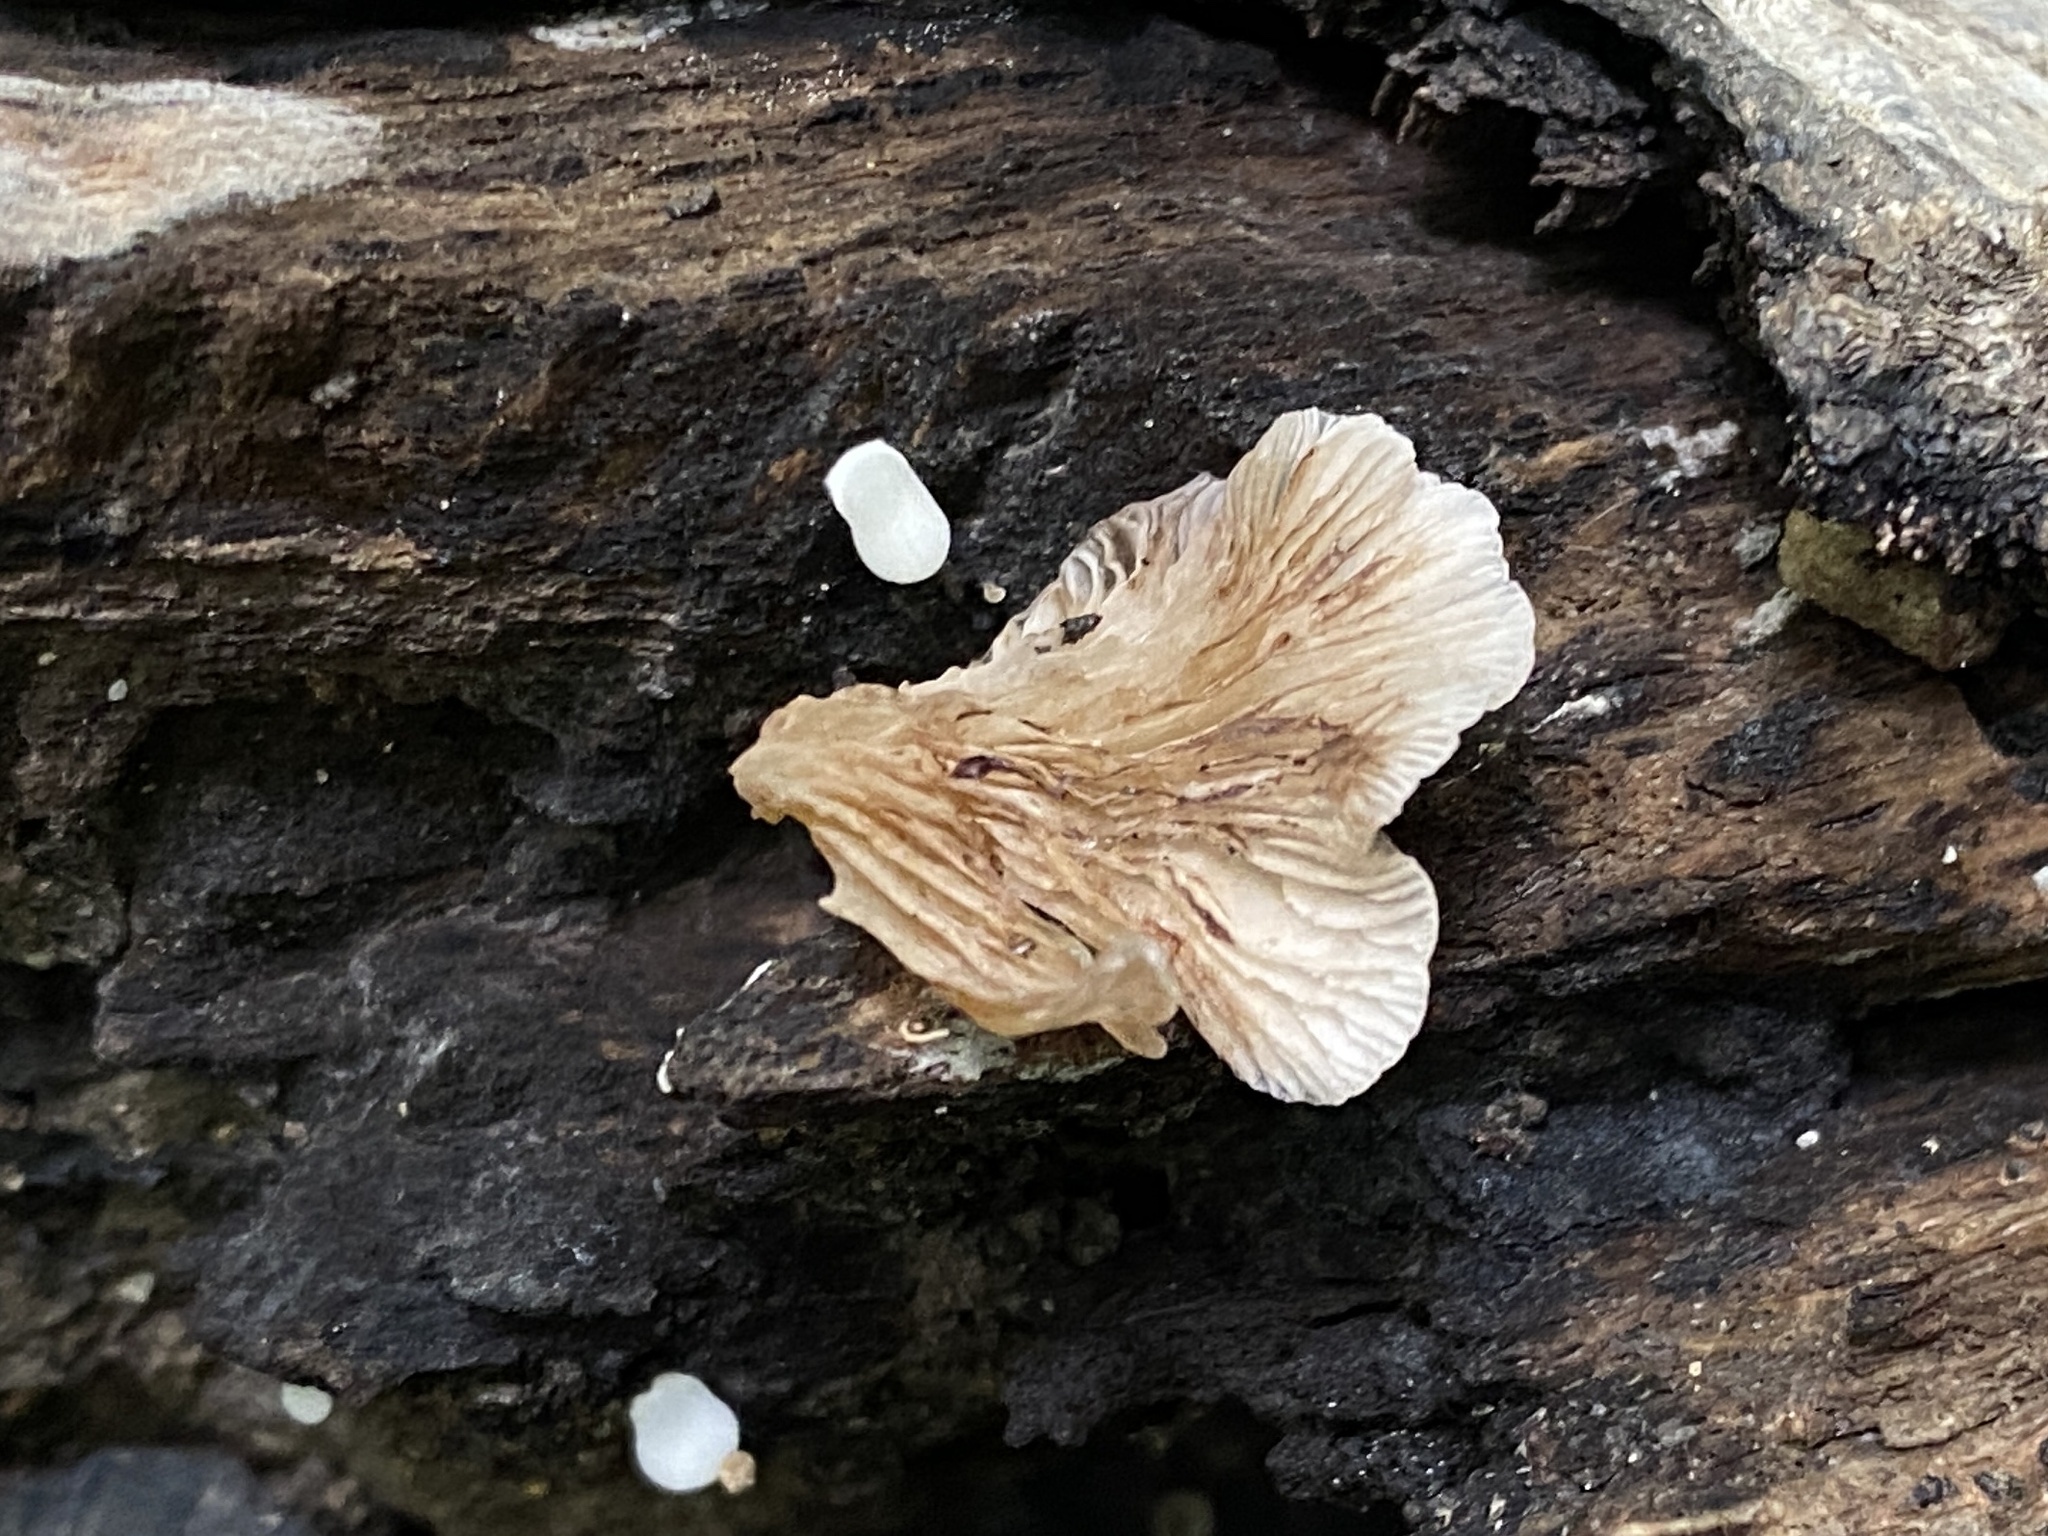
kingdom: Fungi
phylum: Basidiomycota
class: Agaricomycetes
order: Agaricales
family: Crepidotaceae
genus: Crepidotus
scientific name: Crepidotus applanatus
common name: Flat crep
